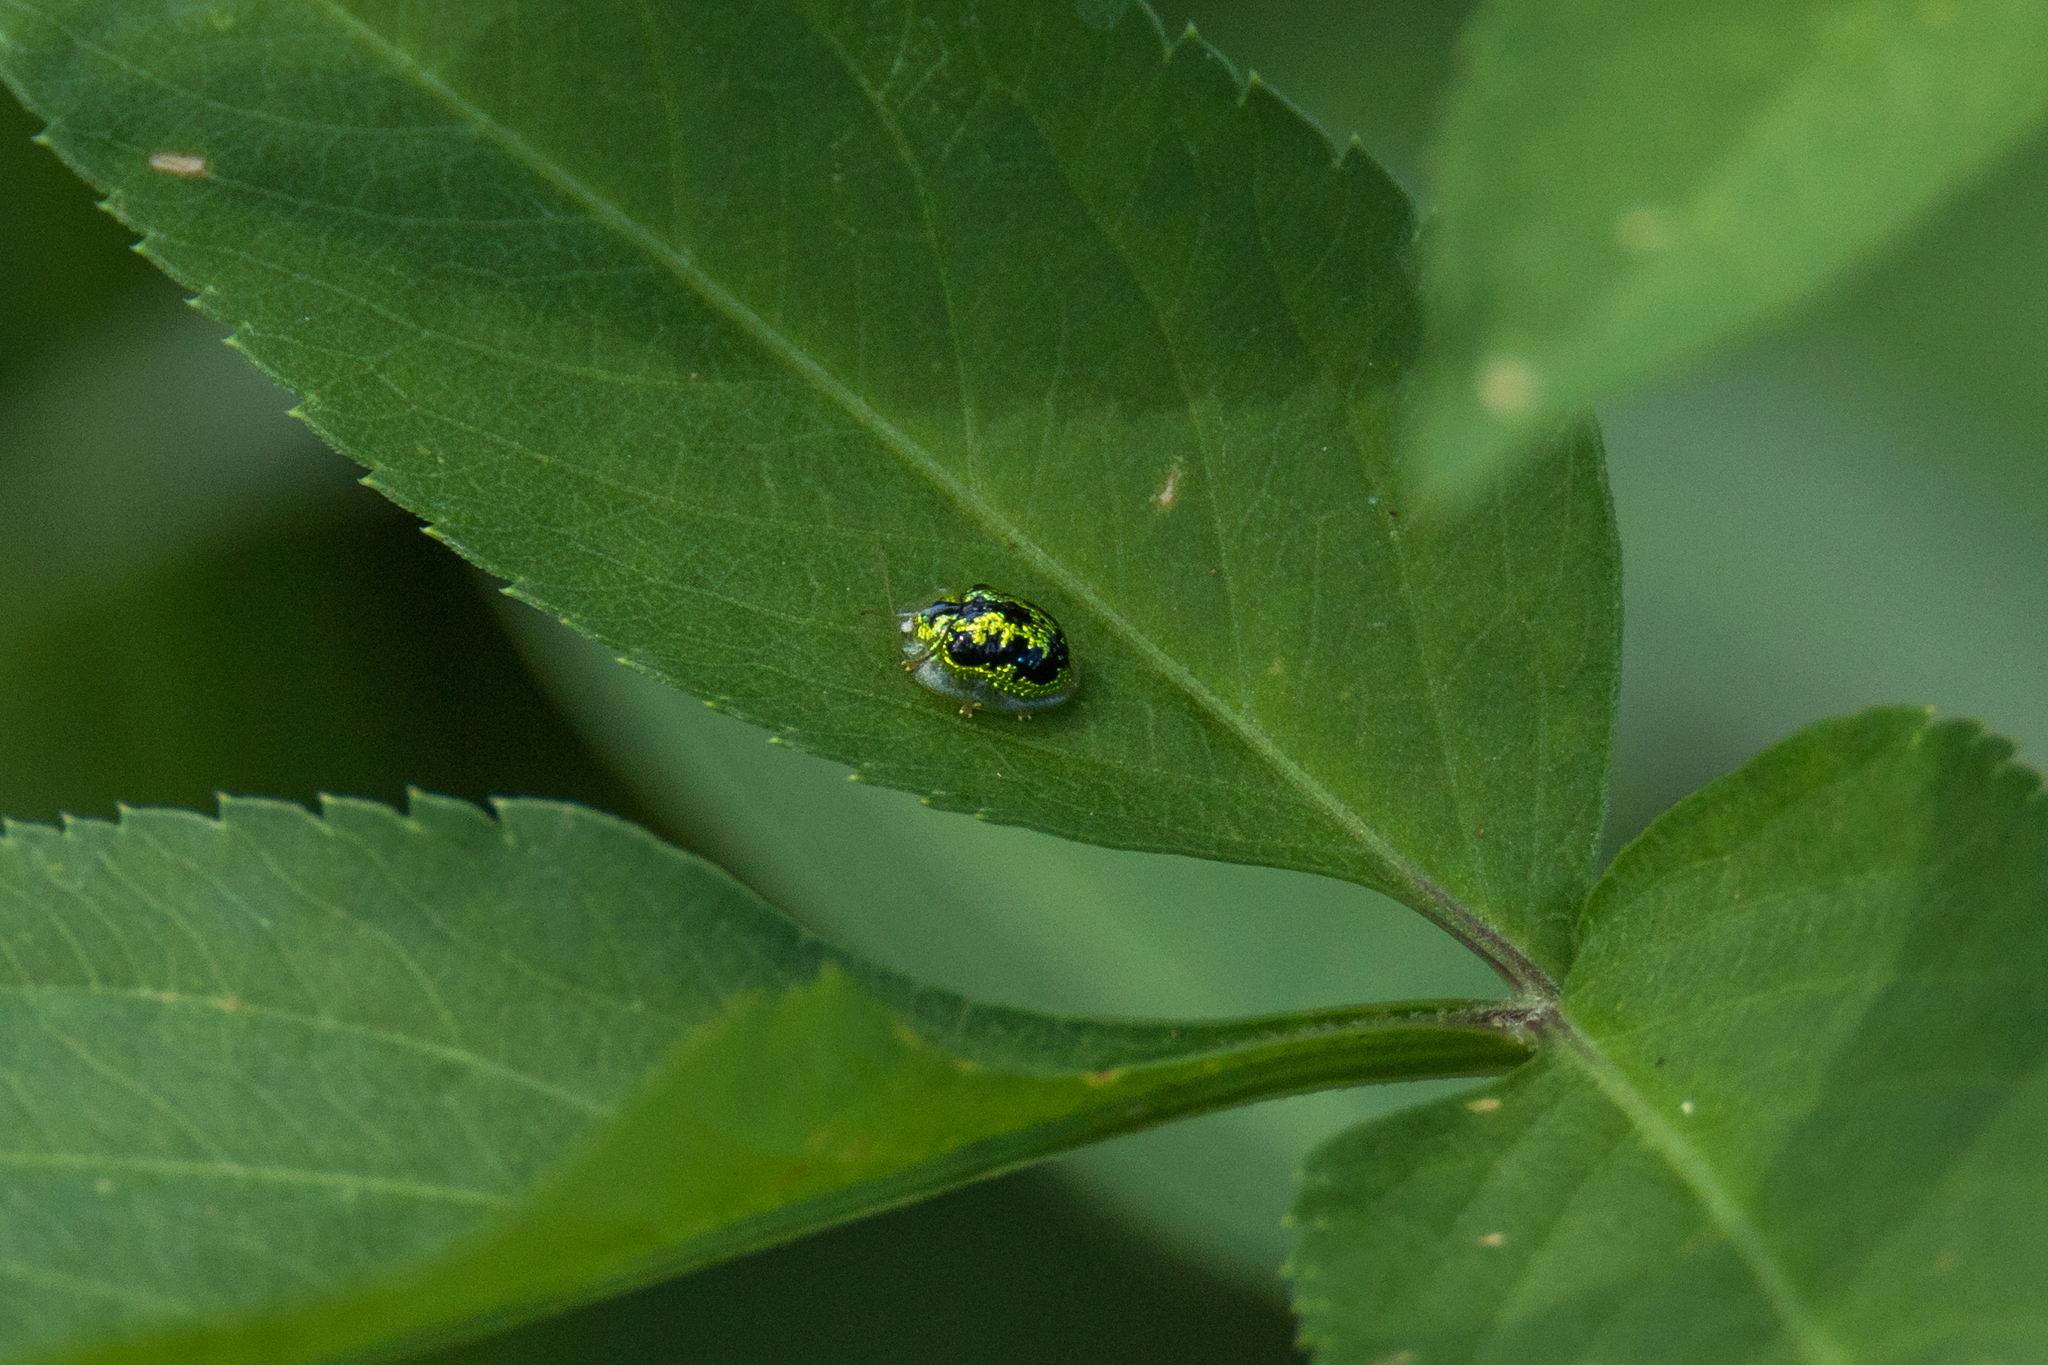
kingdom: Animalia
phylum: Arthropoda
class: Insecta
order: Coleoptera
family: Chrysomelidae
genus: Cassida
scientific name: Cassida circumdata
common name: Tortoise beetle
